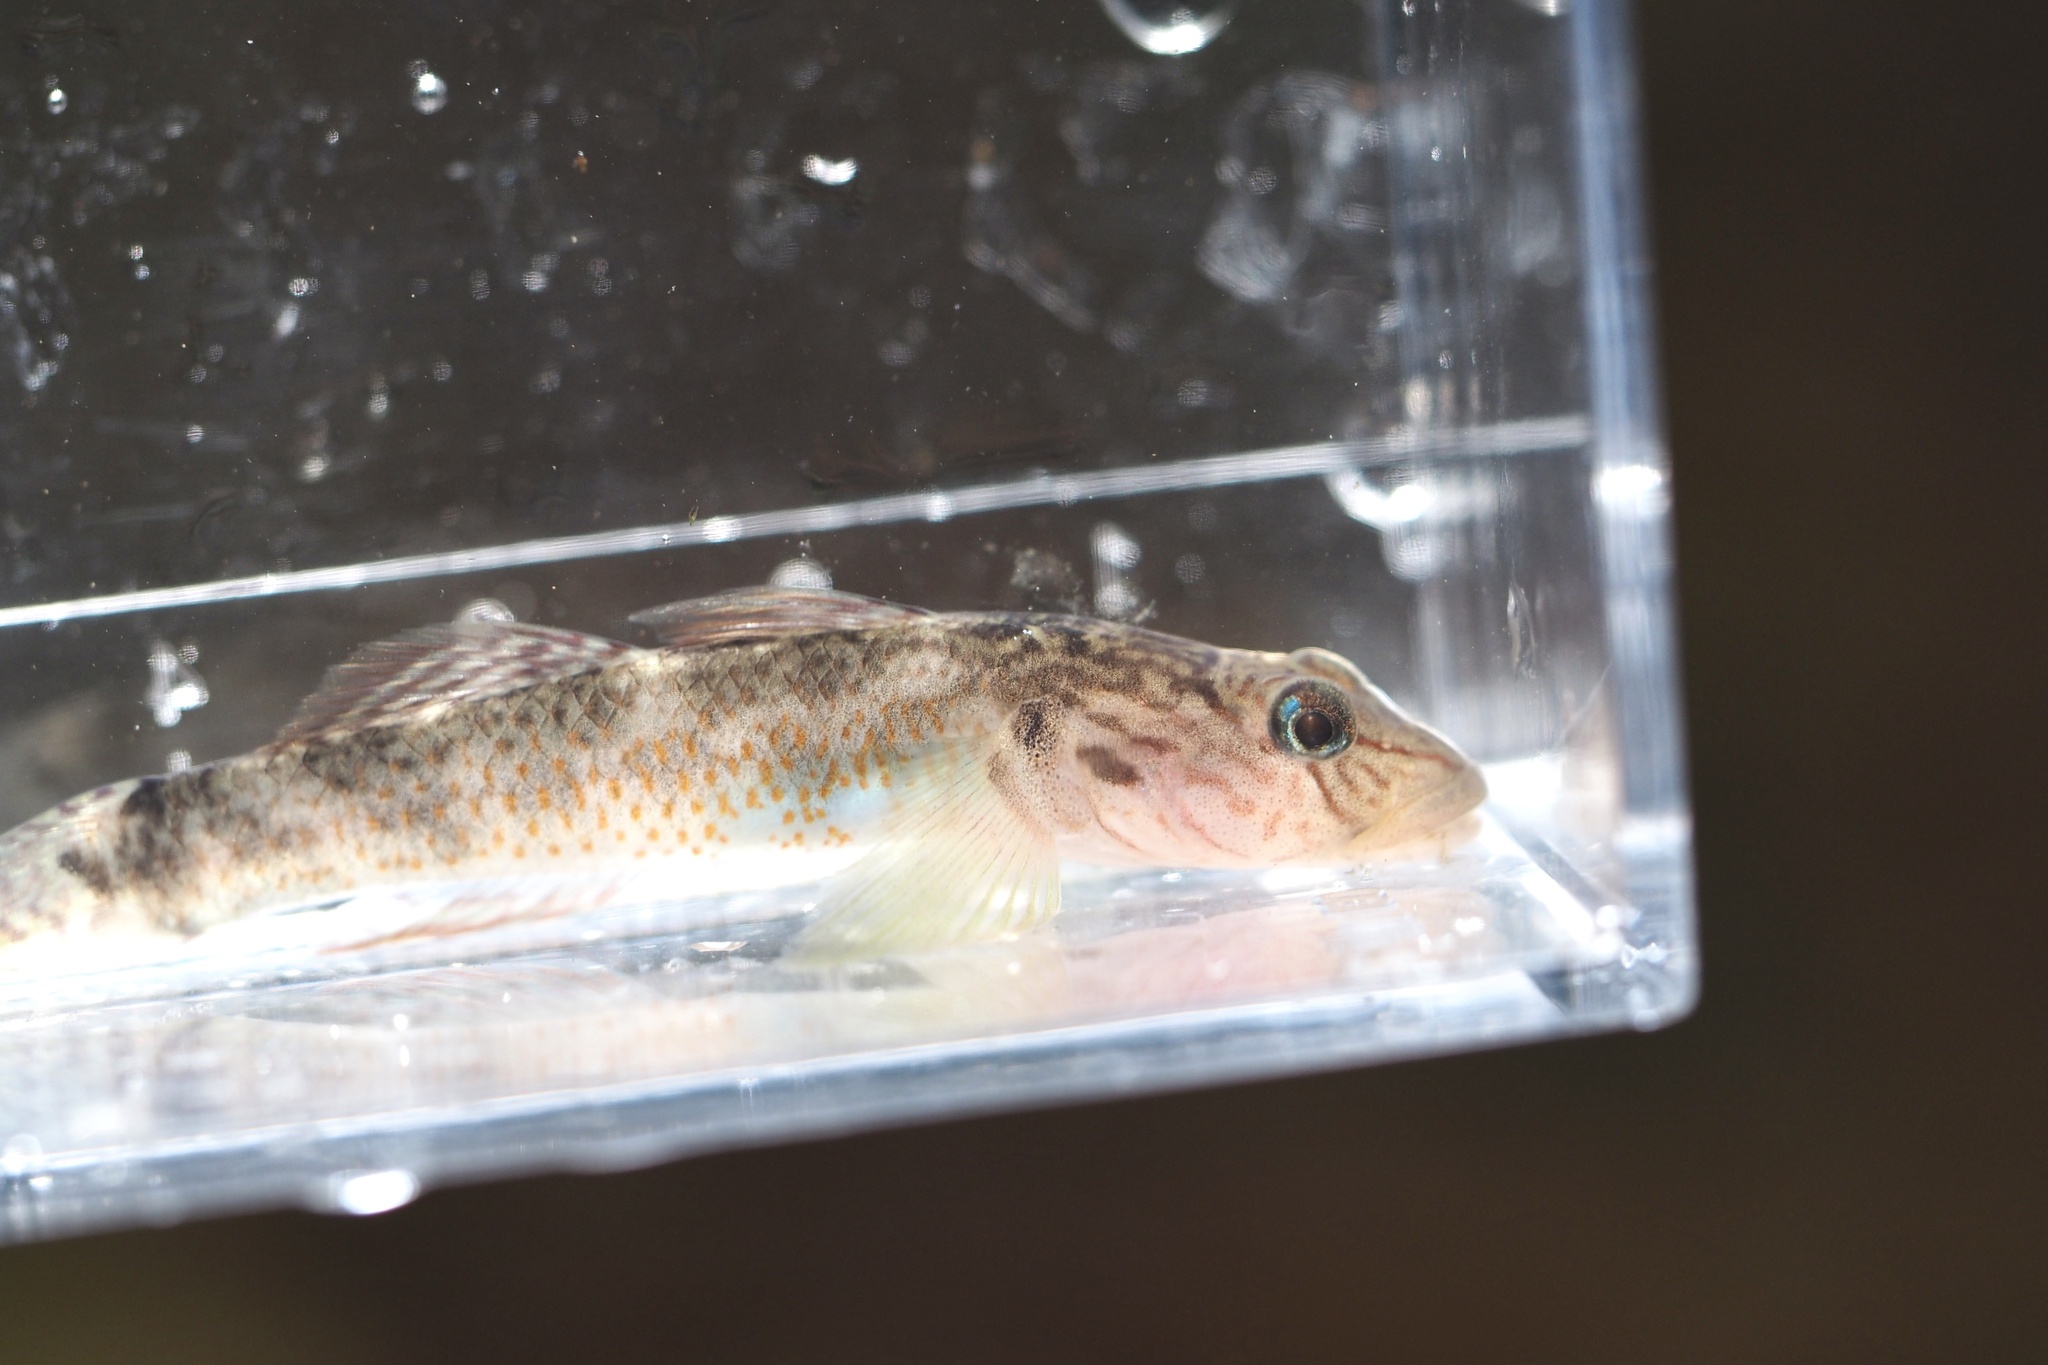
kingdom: Animalia
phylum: Chordata
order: Perciformes
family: Gobiidae
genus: Rhinogobius
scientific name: Rhinogobius nagoyae
